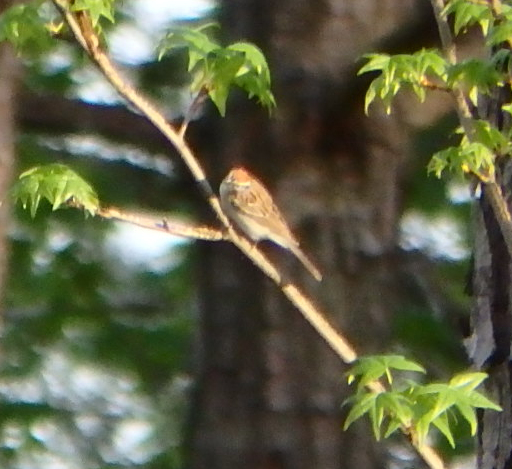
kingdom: Animalia
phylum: Chordata
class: Aves
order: Passeriformes
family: Passerellidae
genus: Spizella
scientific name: Spizella passerina
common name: Chipping sparrow
